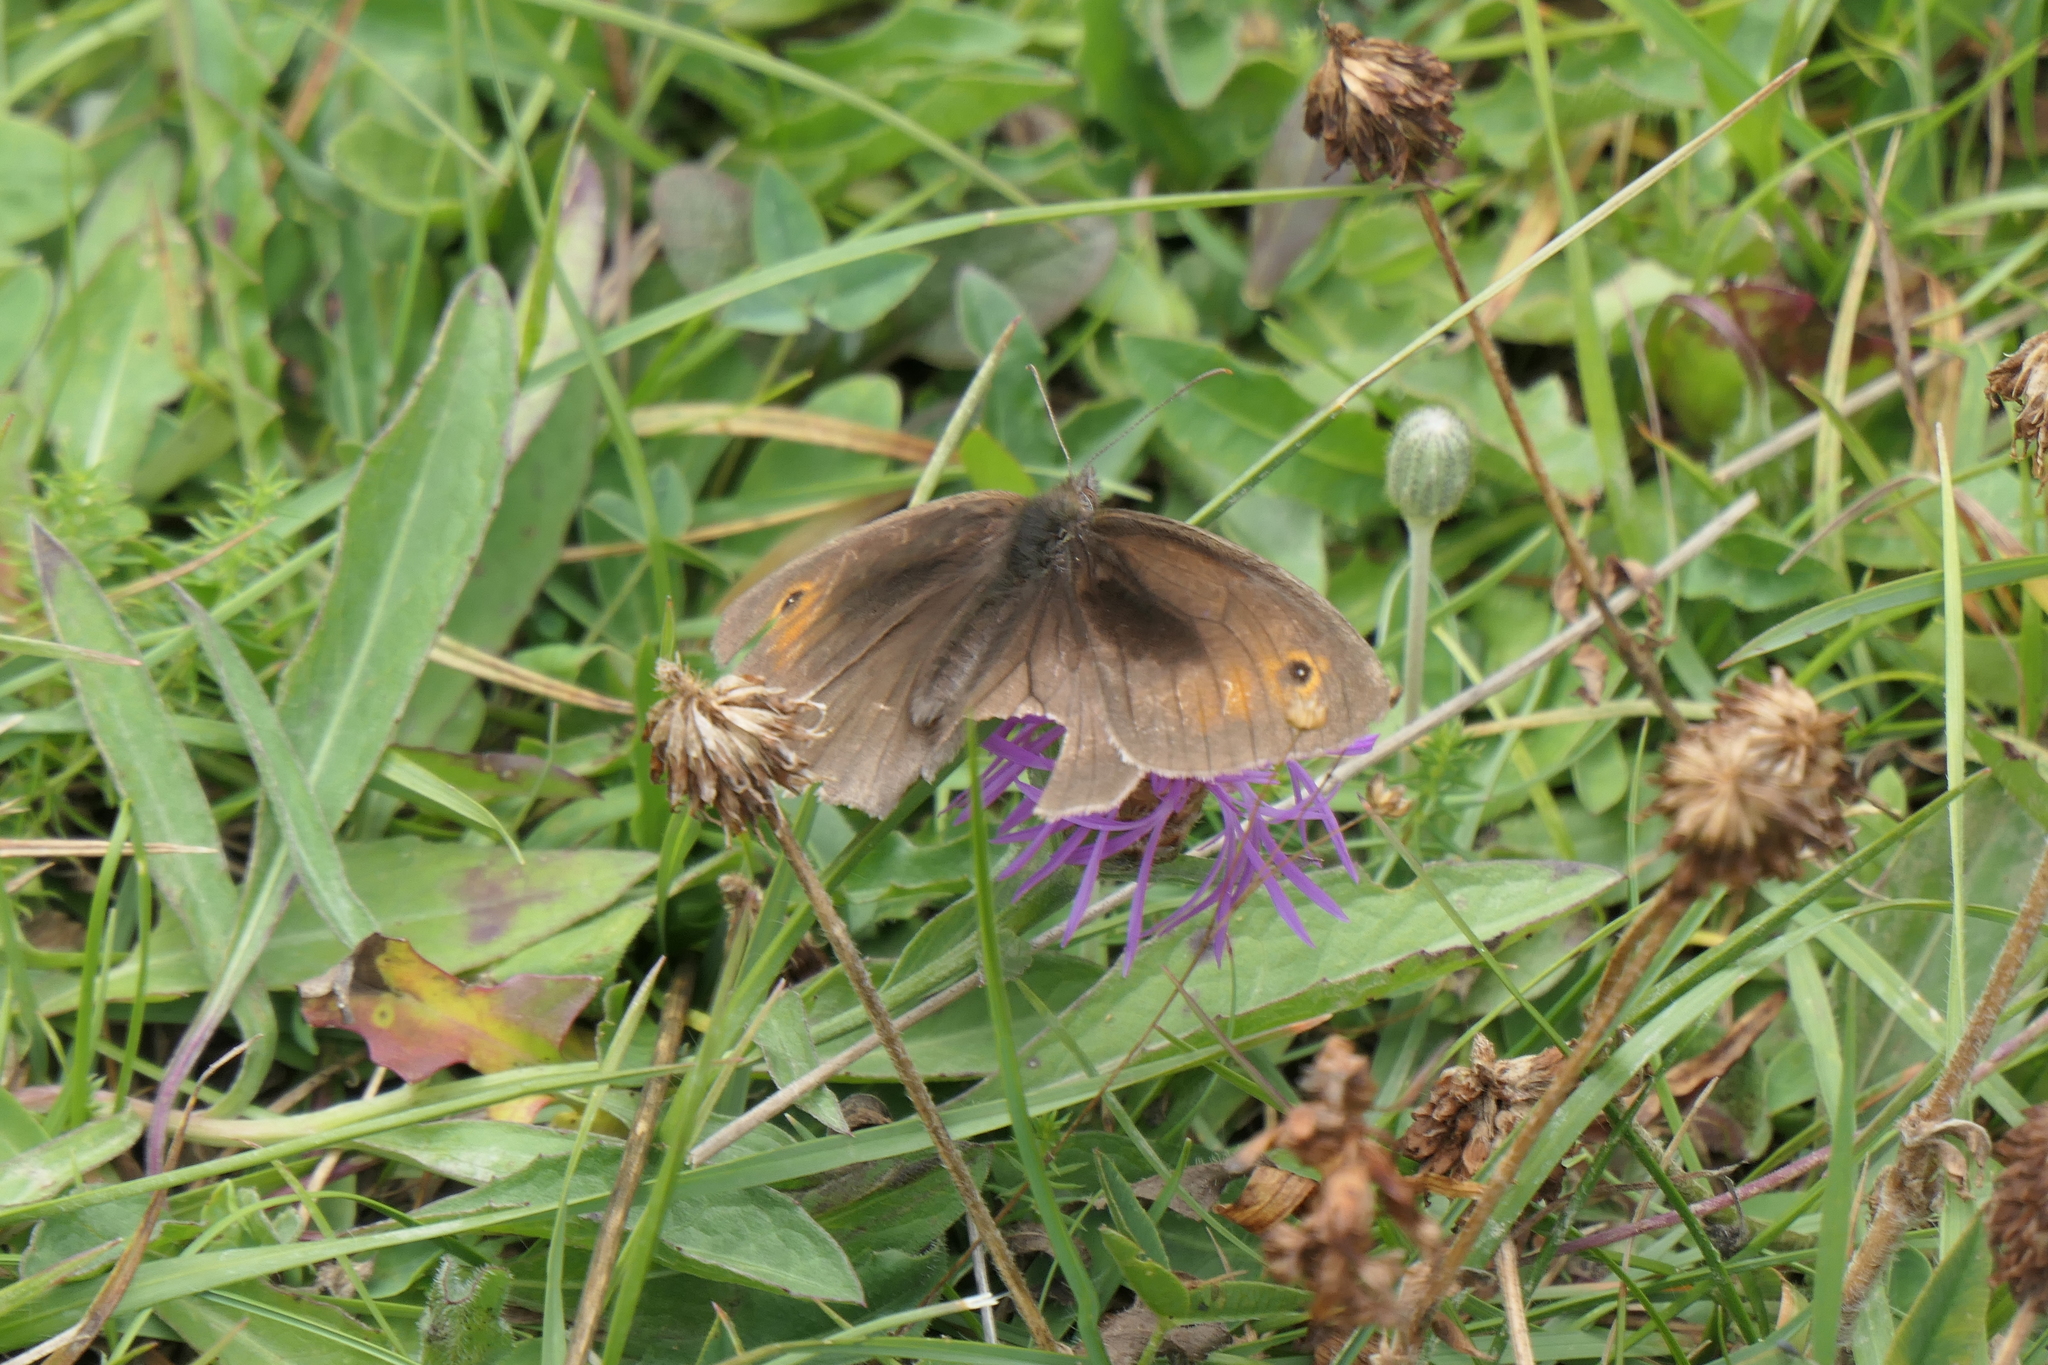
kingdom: Animalia
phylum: Arthropoda
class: Insecta
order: Lepidoptera
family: Nymphalidae
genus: Maniola
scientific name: Maniola jurtina
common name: Meadow brown
